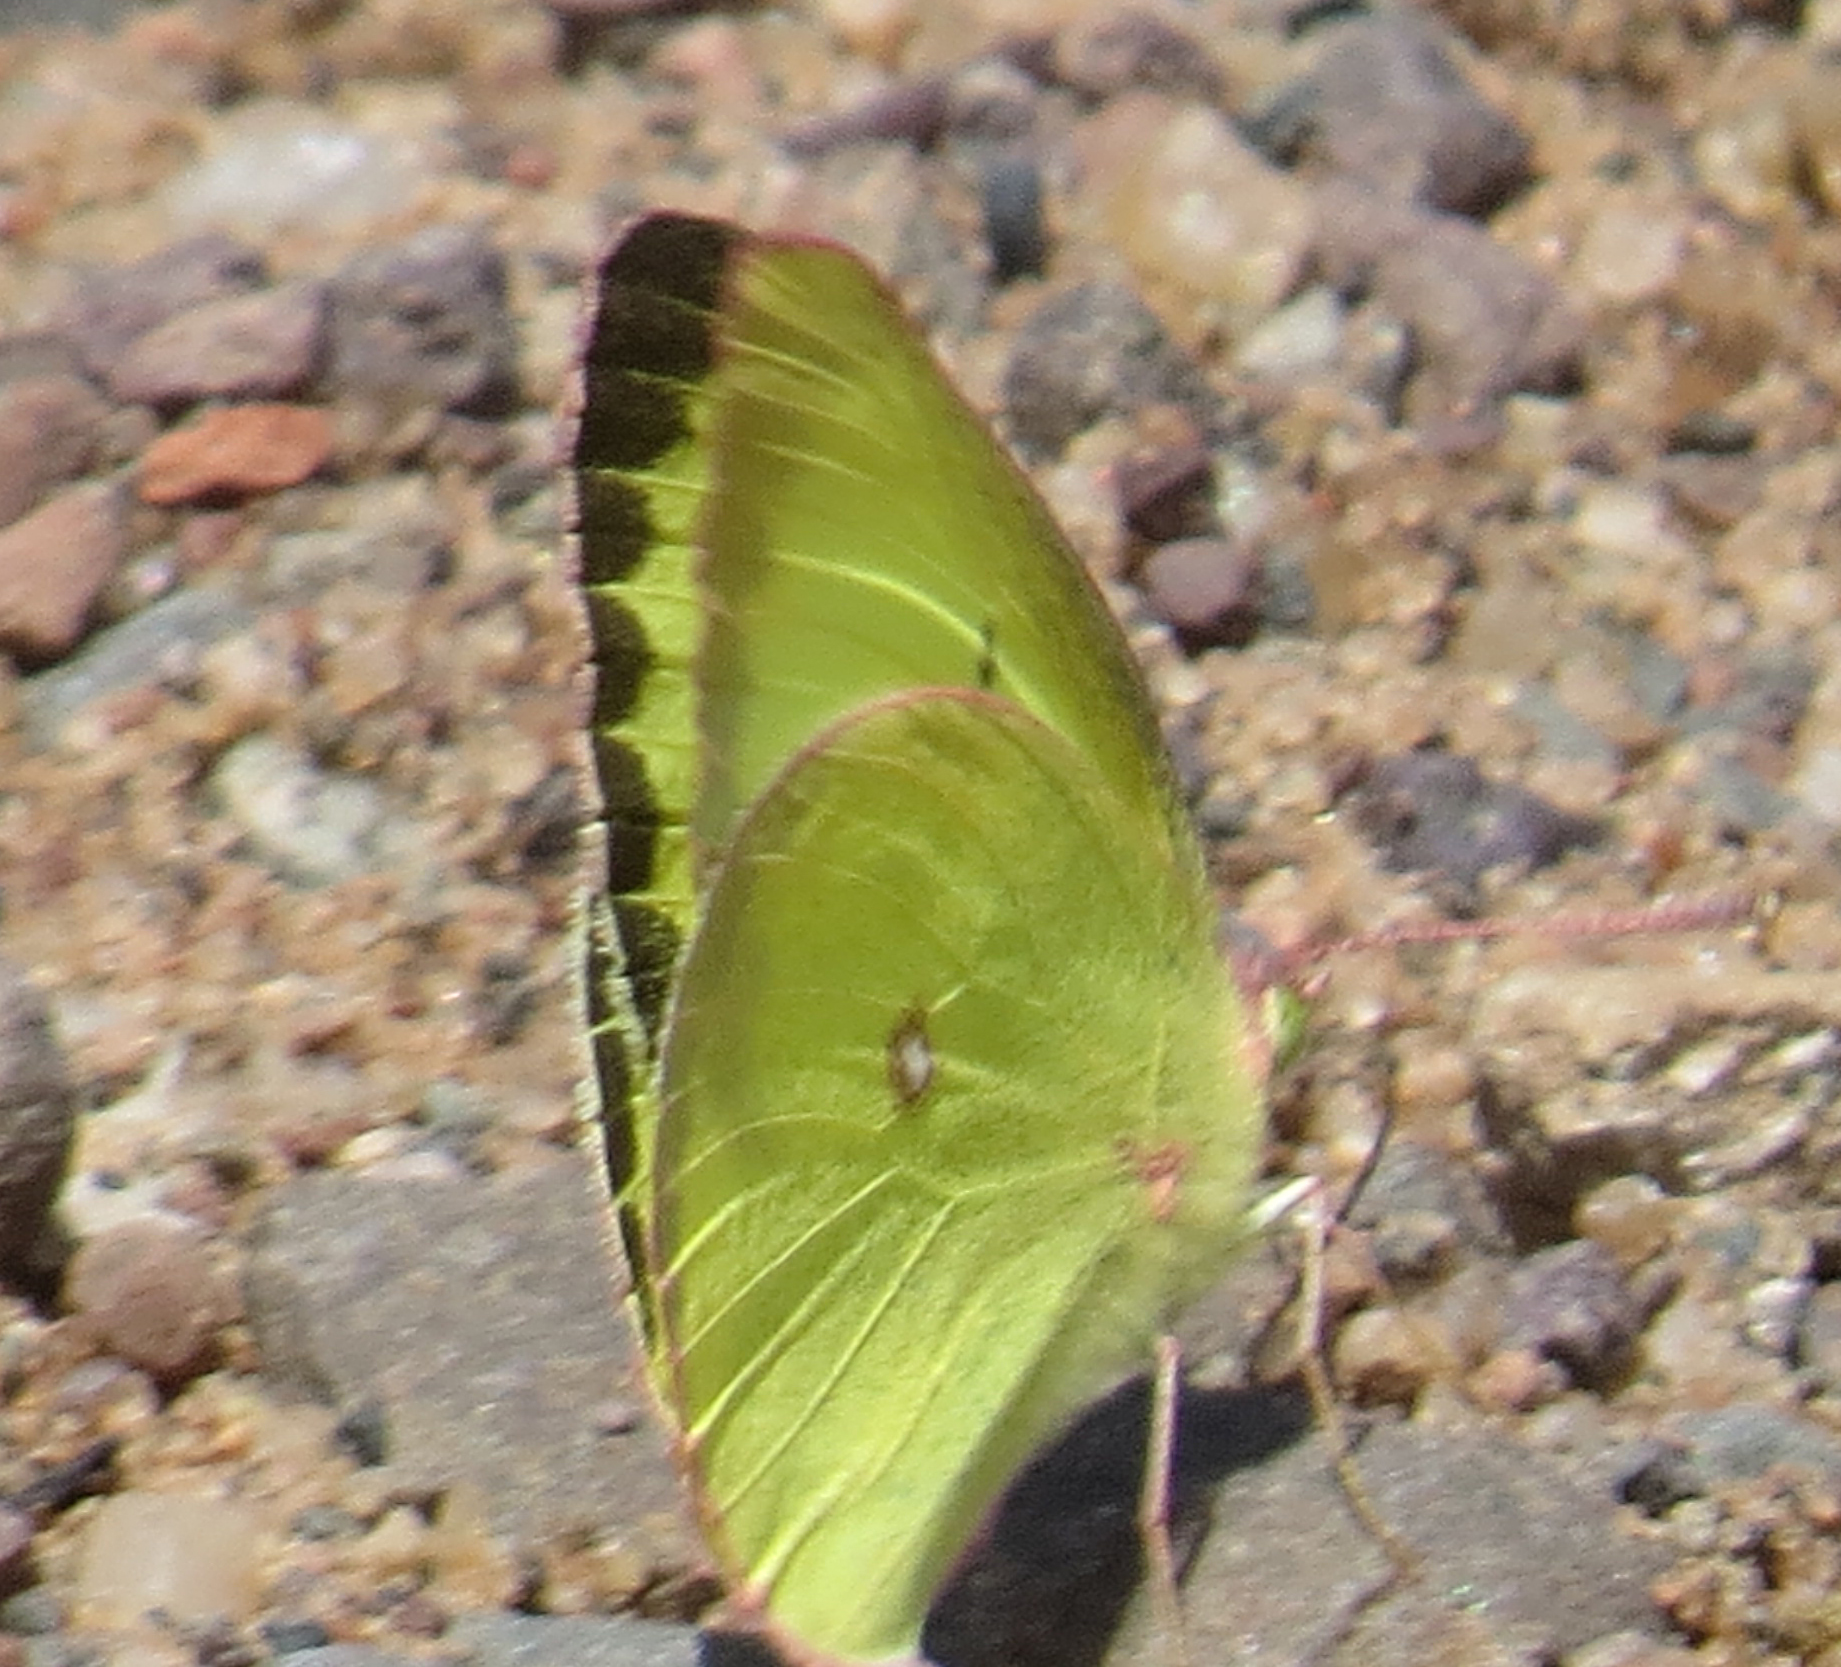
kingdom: Animalia
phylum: Arthropoda
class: Insecta
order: Lepidoptera
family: Pieridae
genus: Colias
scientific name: Colias interior
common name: Pink-edged sulphur
